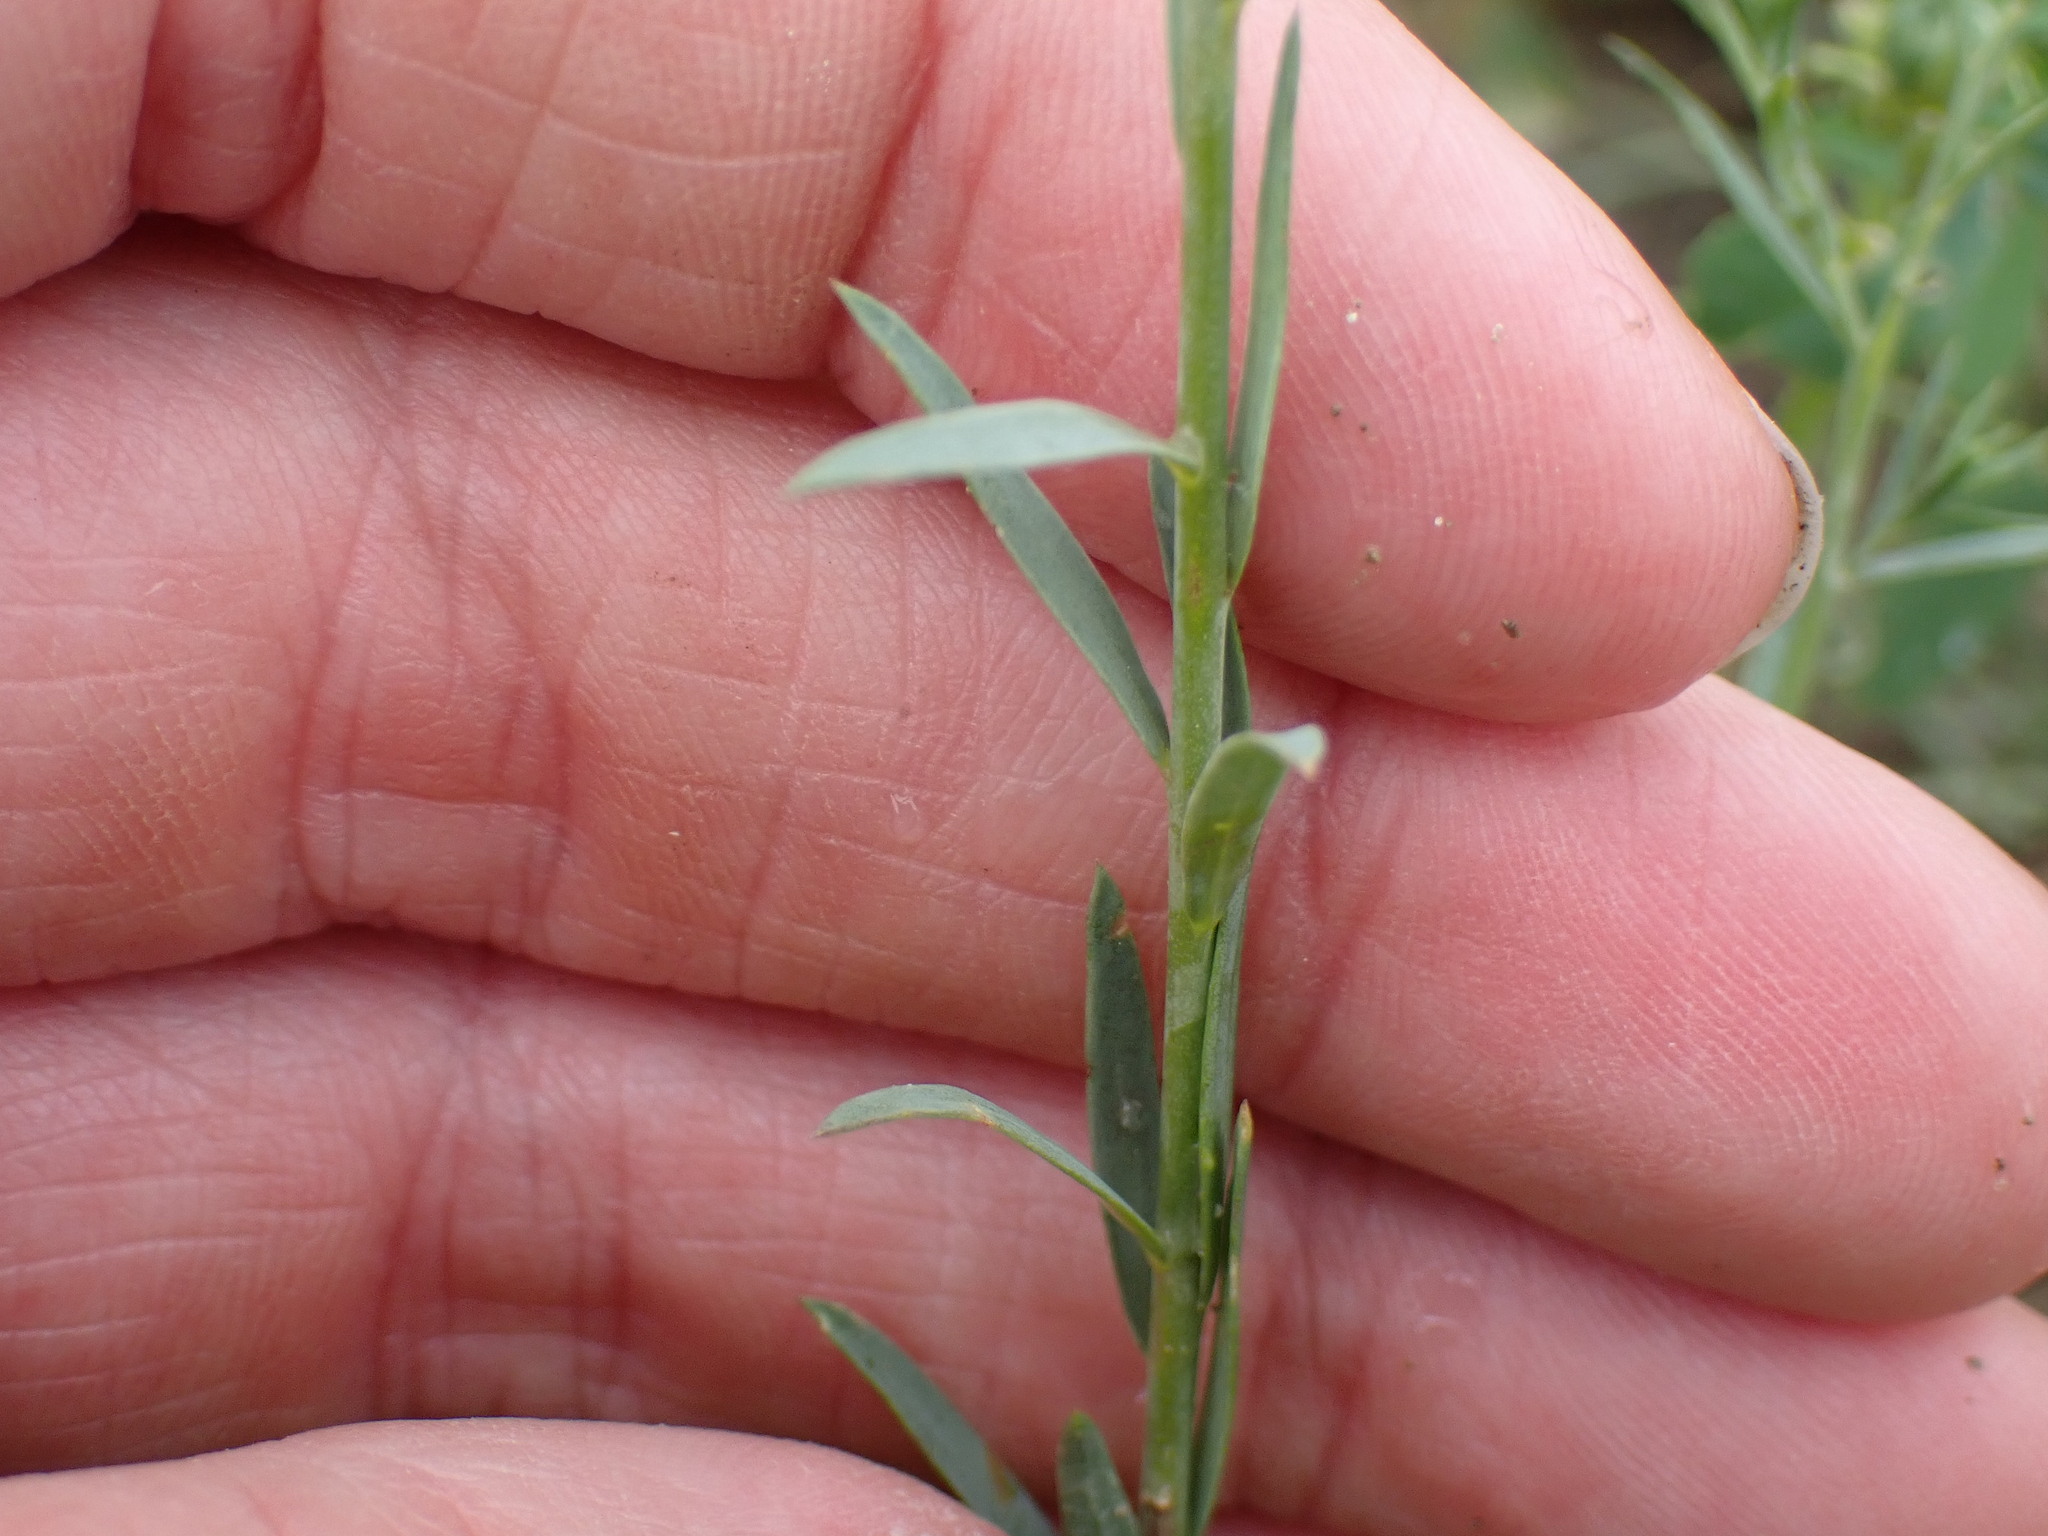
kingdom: Plantae
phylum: Tracheophyta
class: Magnoliopsida
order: Malpighiales
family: Linaceae
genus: Linum
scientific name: Linum lewisii
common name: Prairie flax
